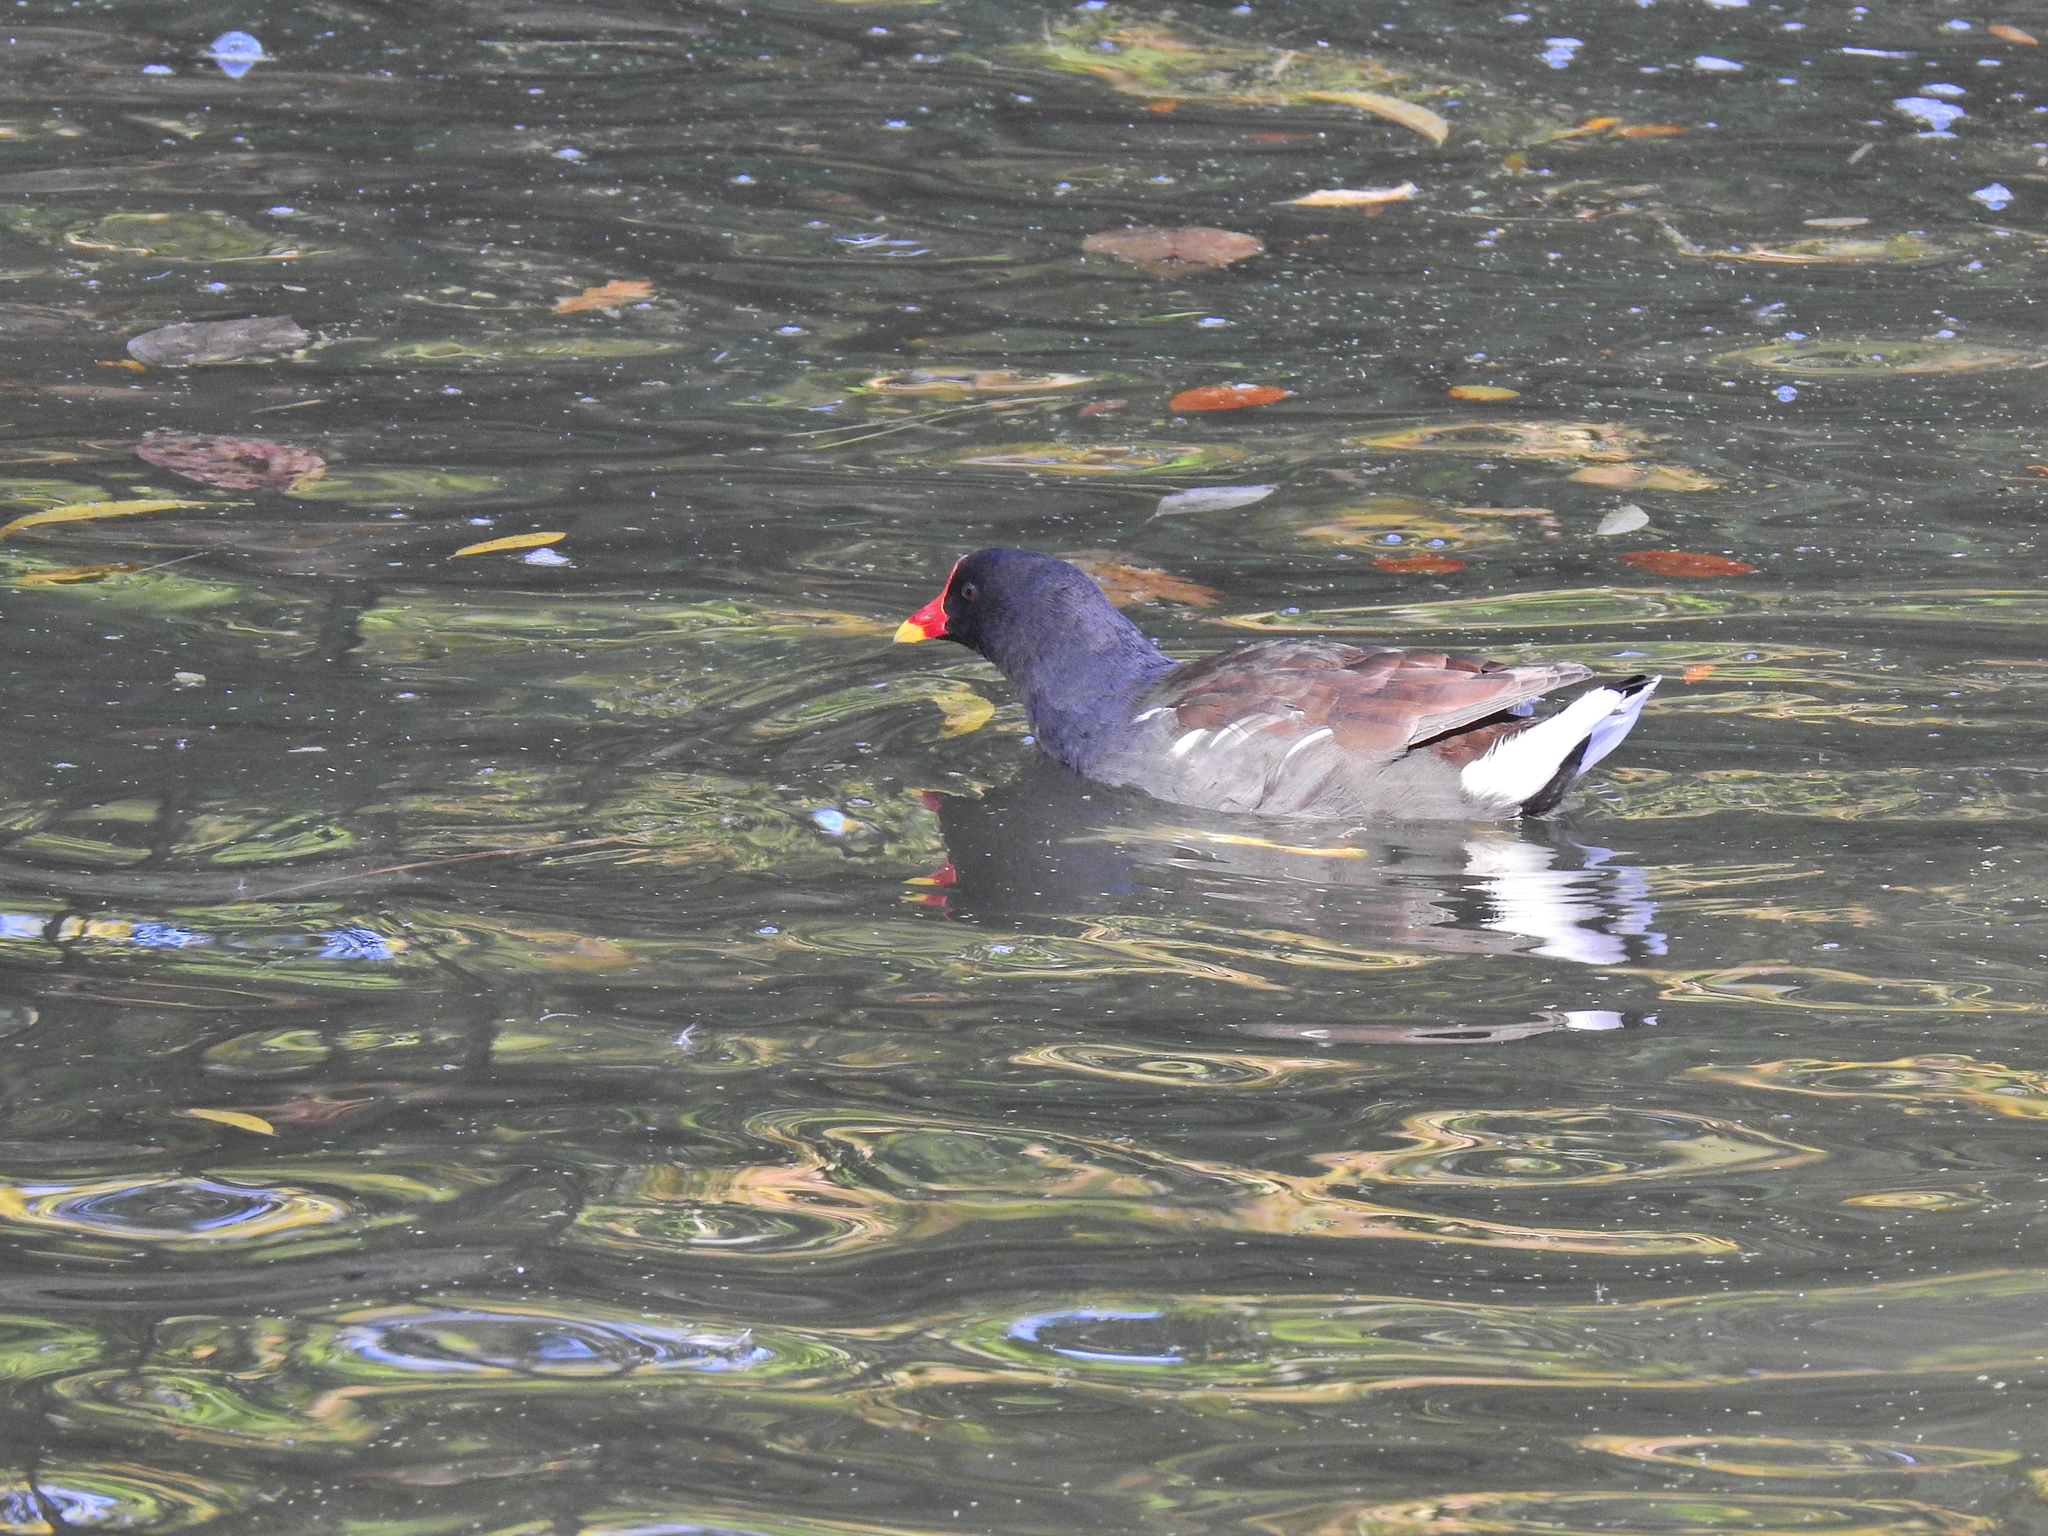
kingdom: Animalia
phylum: Chordata
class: Aves
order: Gruiformes
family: Rallidae
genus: Gallinula
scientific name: Gallinula chloropus
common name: Common moorhen
